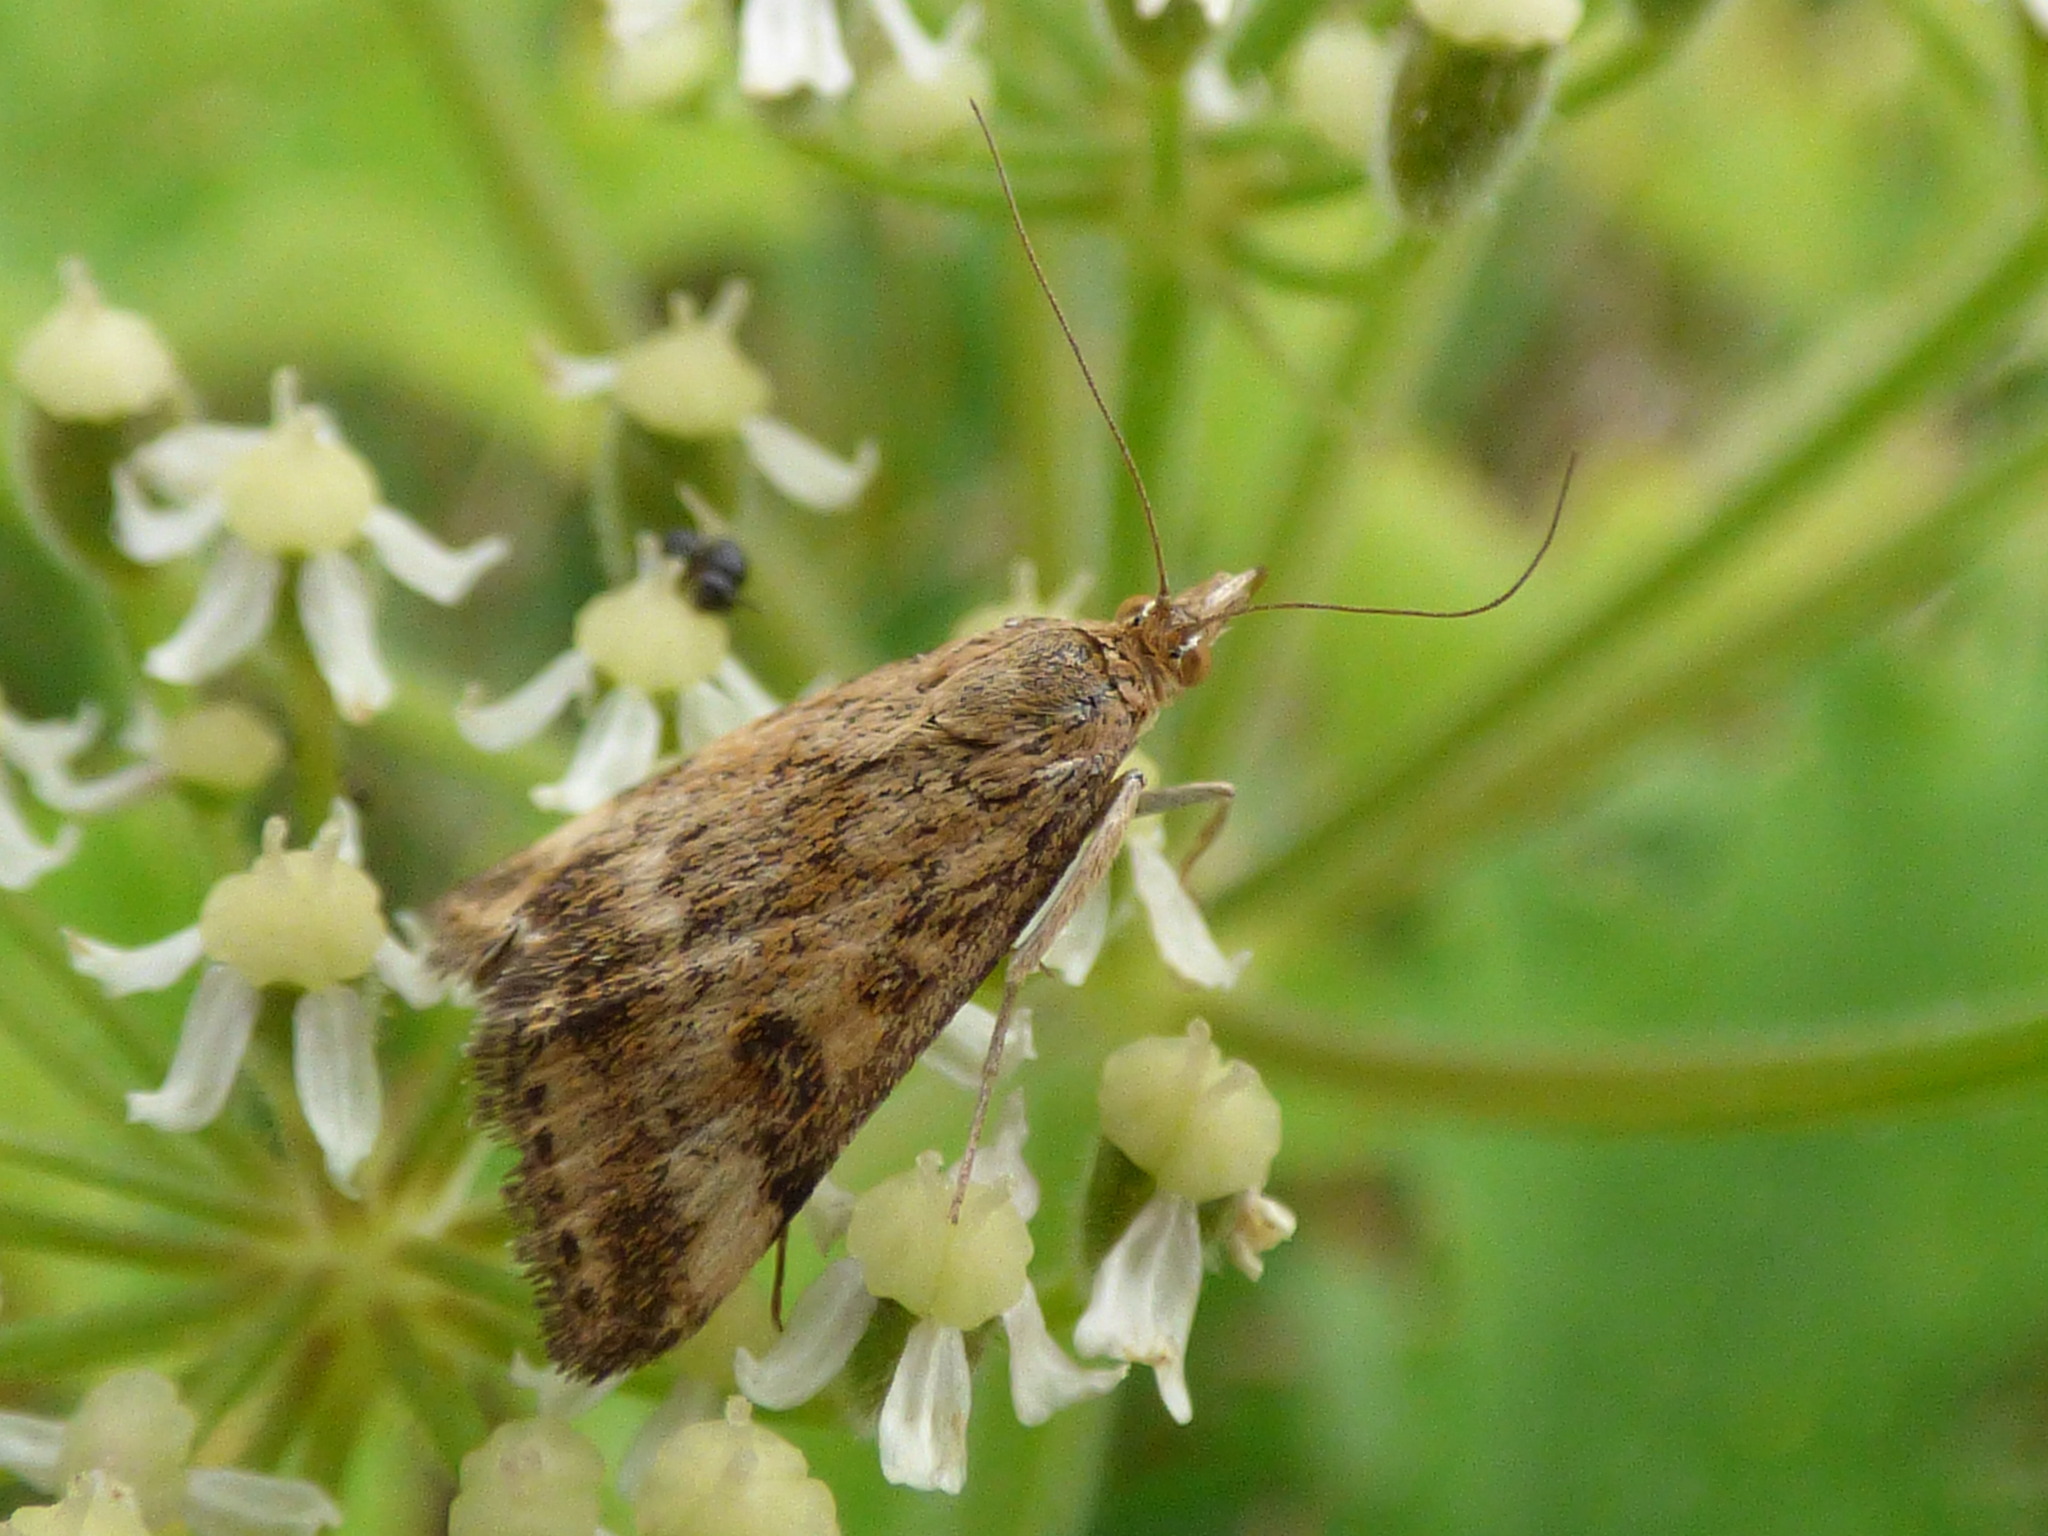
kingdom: Animalia
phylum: Arthropoda
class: Insecta
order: Lepidoptera
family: Crambidae
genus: Pyrausta
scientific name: Pyrausta despicata
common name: Straw-barred pearl
